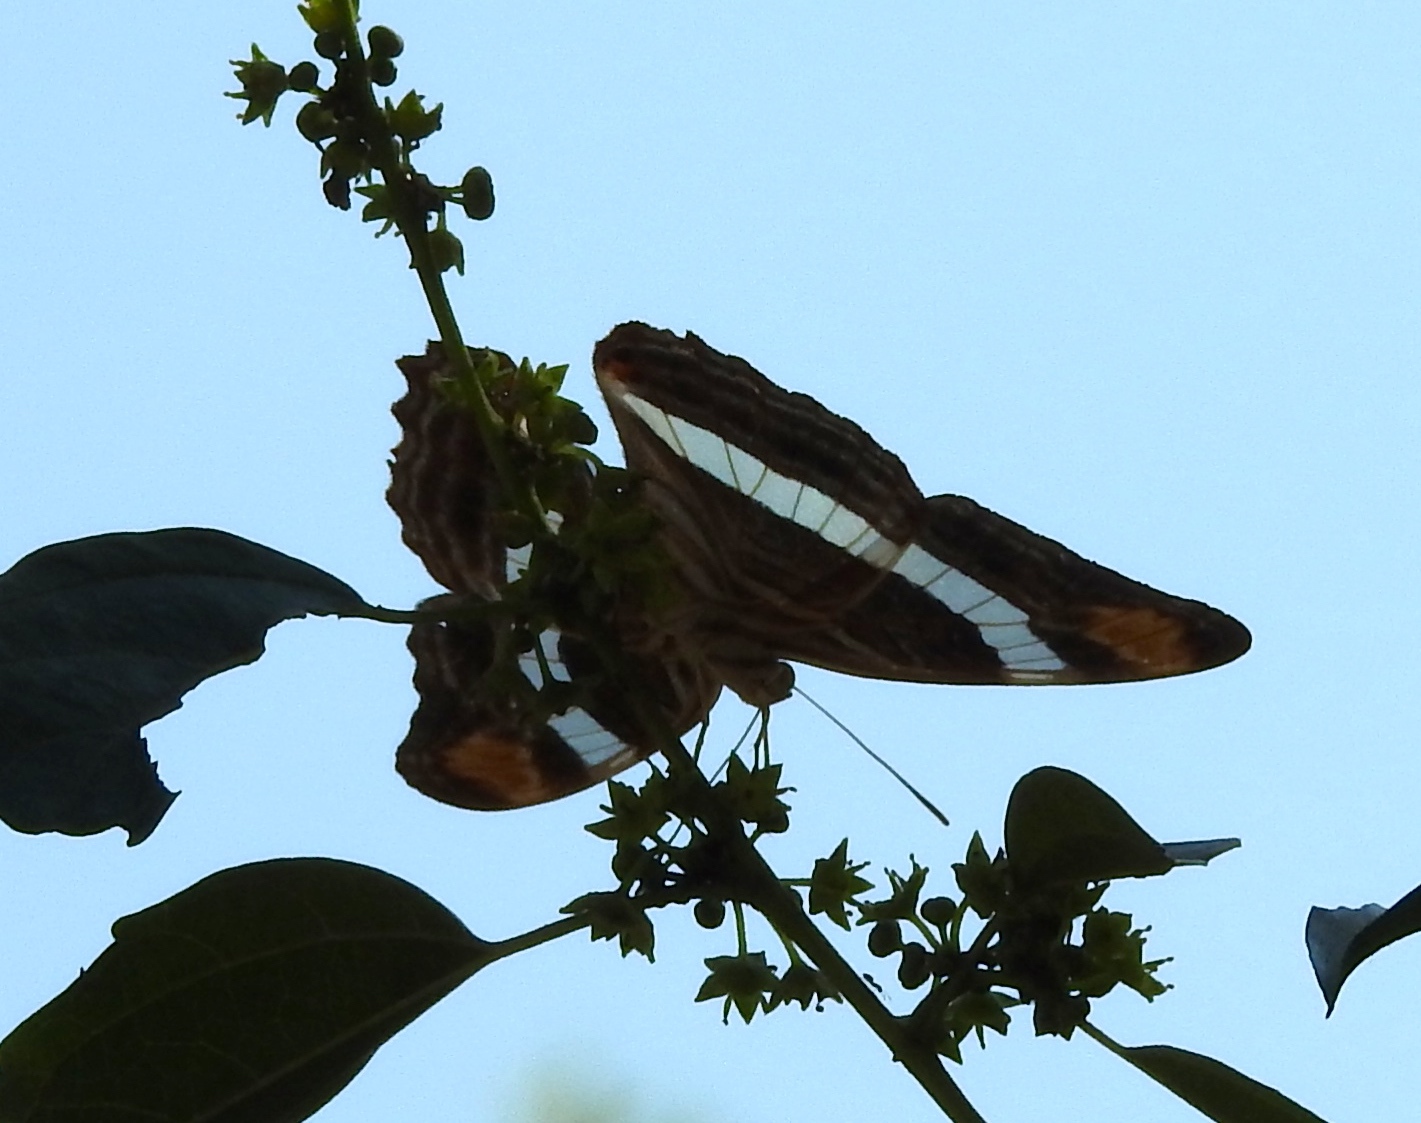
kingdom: Animalia
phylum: Arthropoda
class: Insecta
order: Lepidoptera
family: Nymphalidae
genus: Limenitis
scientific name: Limenitis fessonia
